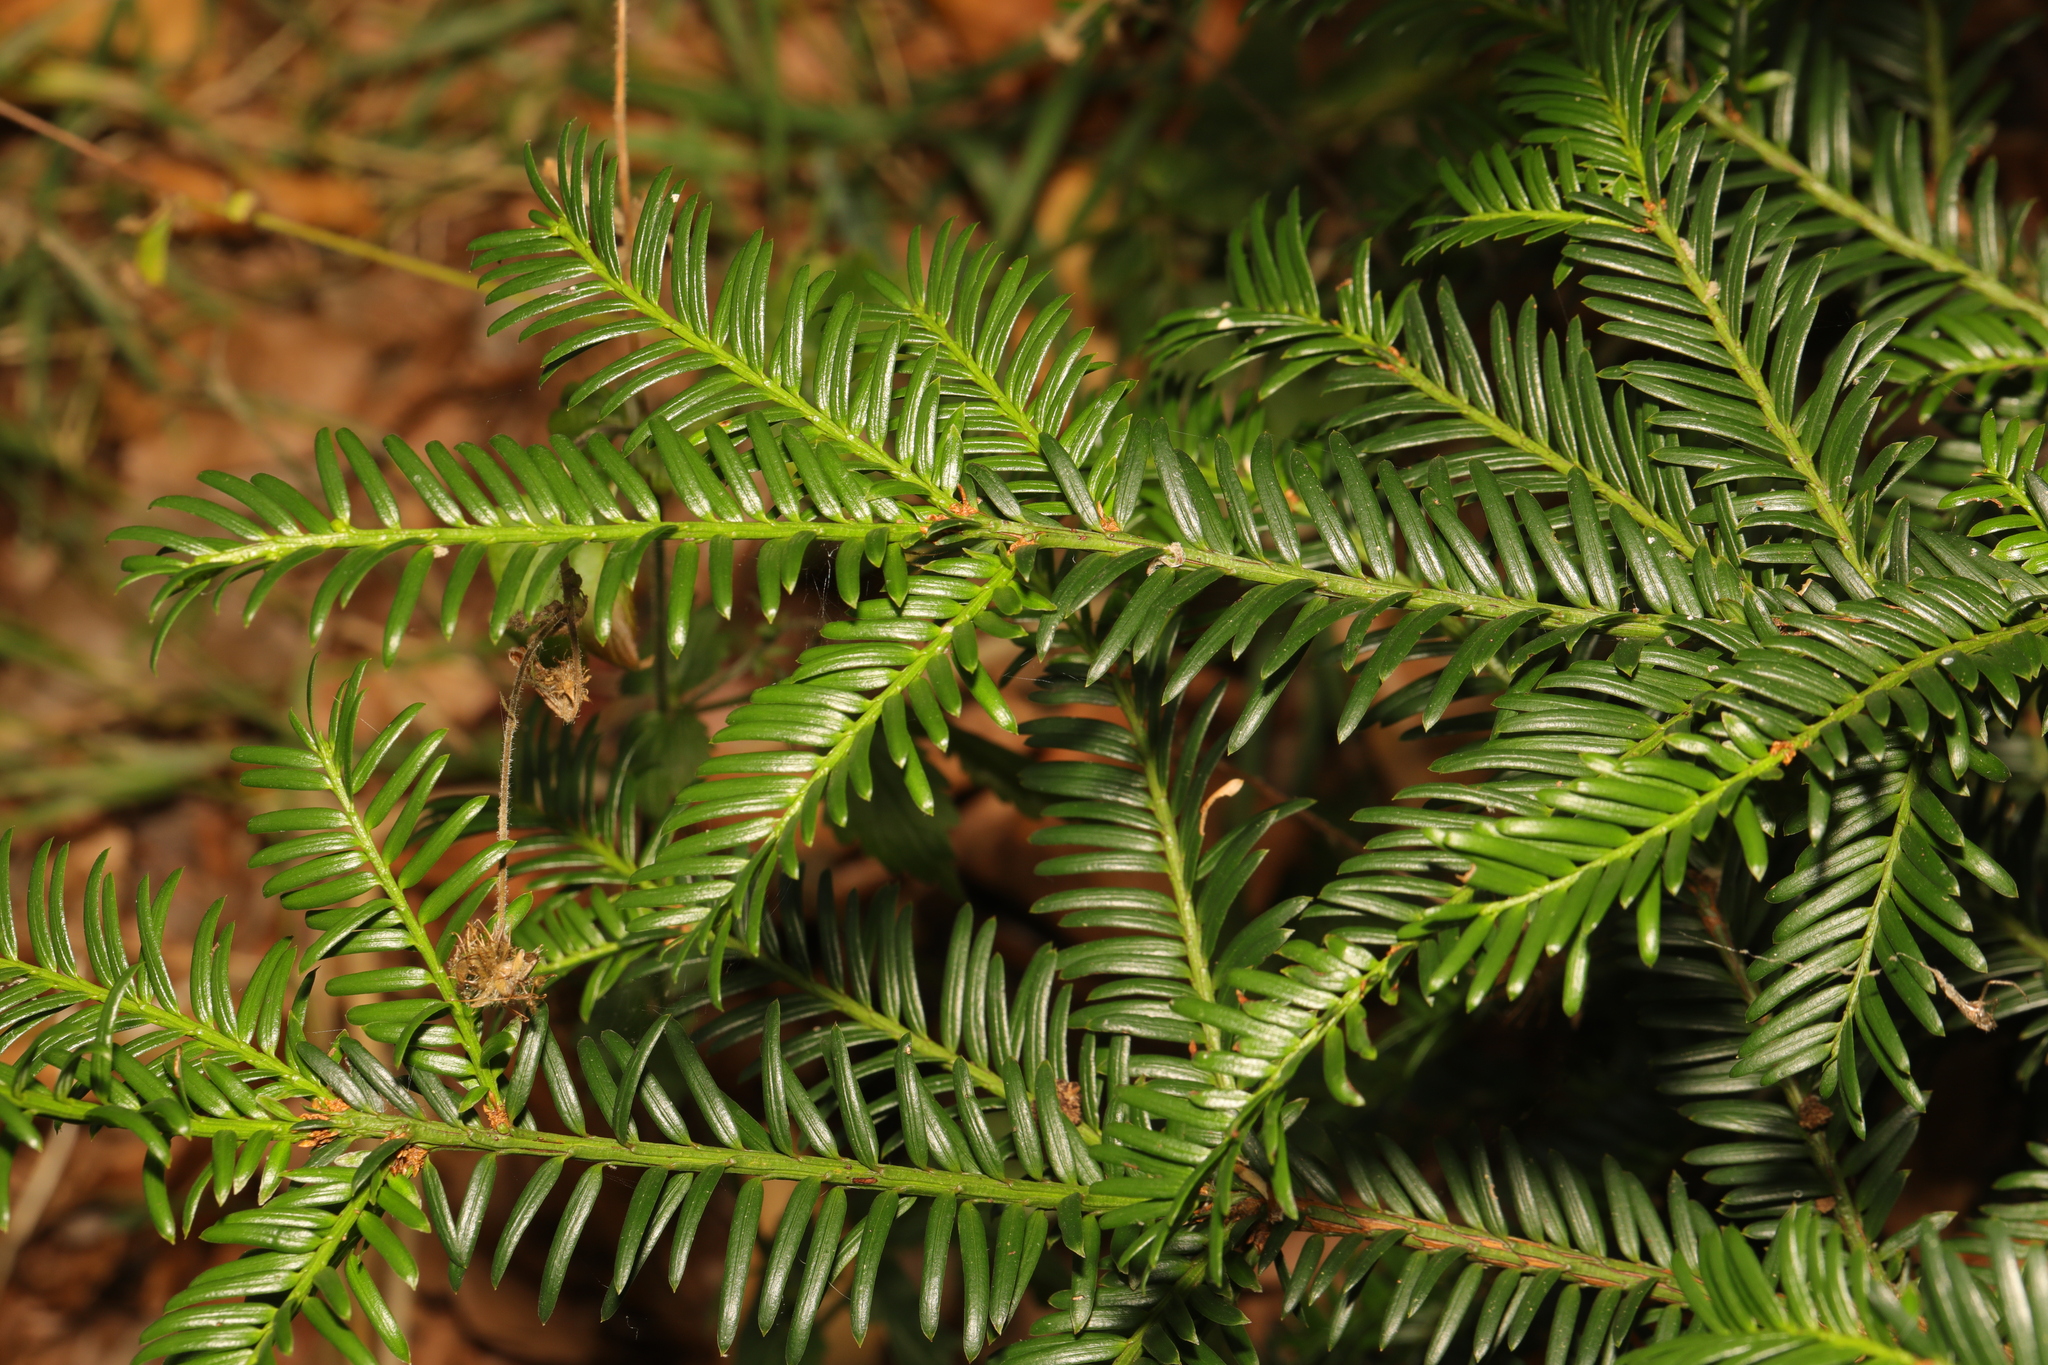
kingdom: Plantae
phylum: Tracheophyta
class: Pinopsida
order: Pinales
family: Taxaceae
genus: Taxus
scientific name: Taxus baccata
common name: Yew
